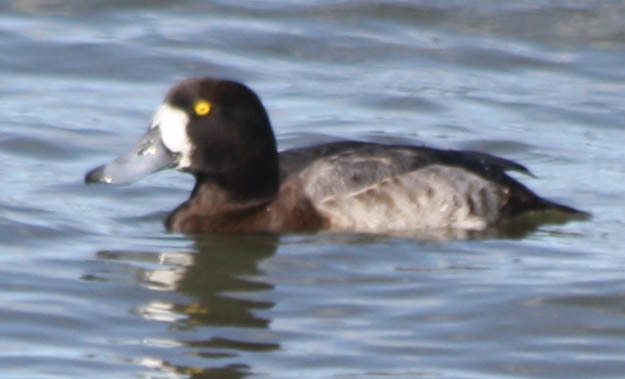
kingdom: Animalia
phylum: Chordata
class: Aves
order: Anseriformes
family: Anatidae
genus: Aythya
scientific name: Aythya marila
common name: Greater scaup
